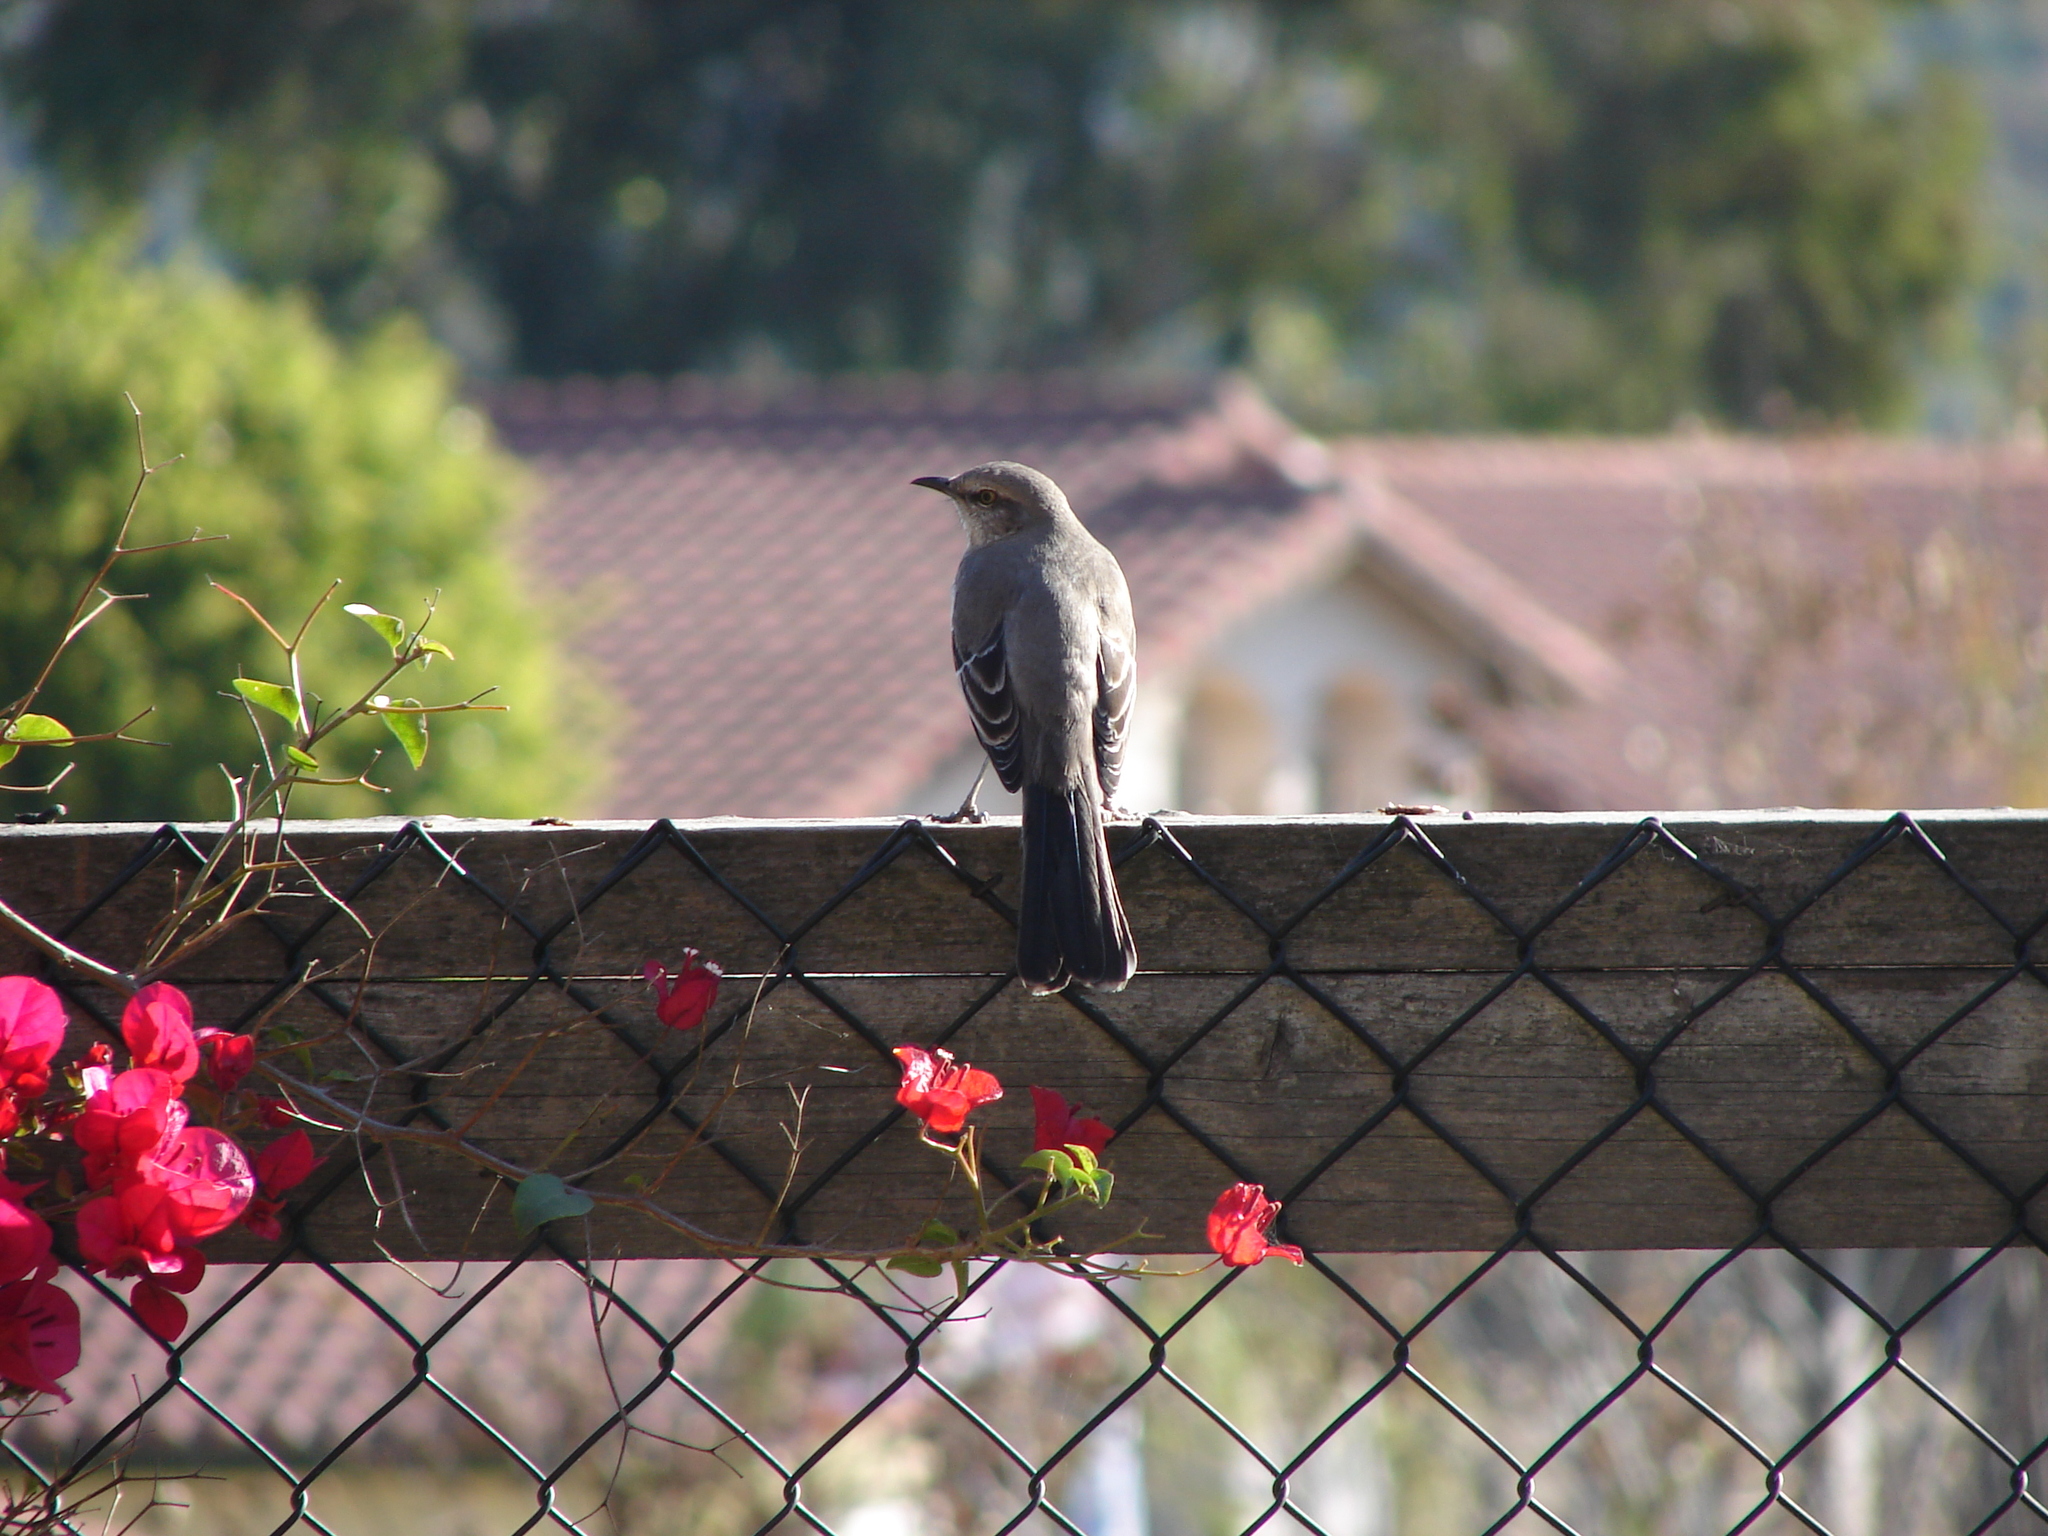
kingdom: Animalia
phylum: Chordata
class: Aves
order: Passeriformes
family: Mimidae
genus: Mimus
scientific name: Mimus polyglottos
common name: Northern mockingbird
